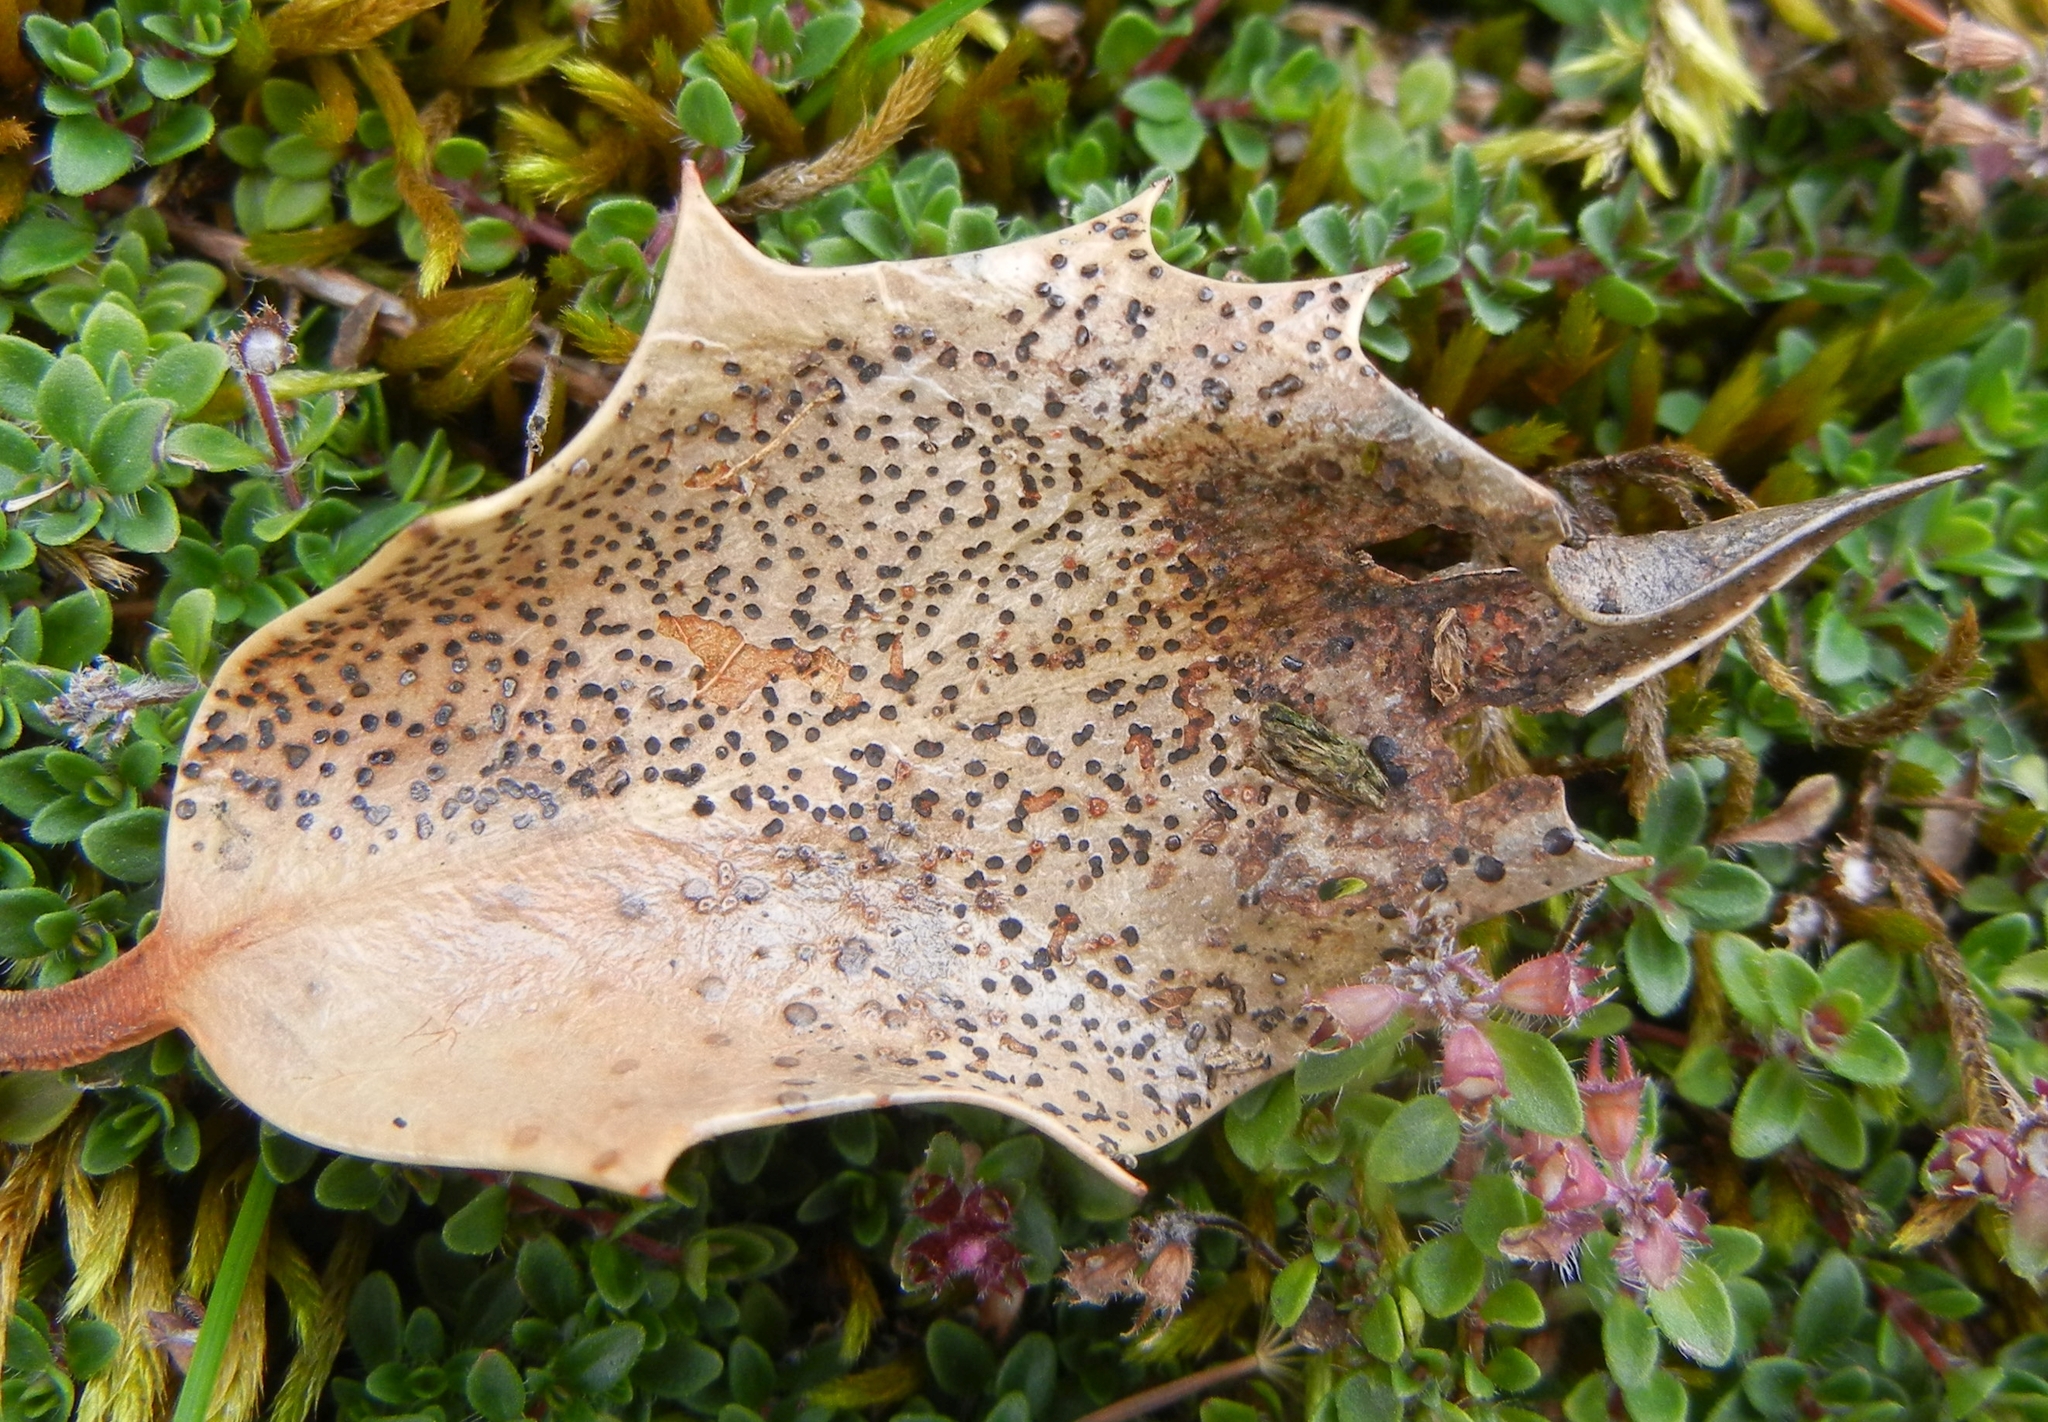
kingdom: Fungi
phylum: Ascomycota
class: Leotiomycetes
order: Helotiales
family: Cenangiaceae
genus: Trochila
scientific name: Trochila ilicina
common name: Holly speckle
